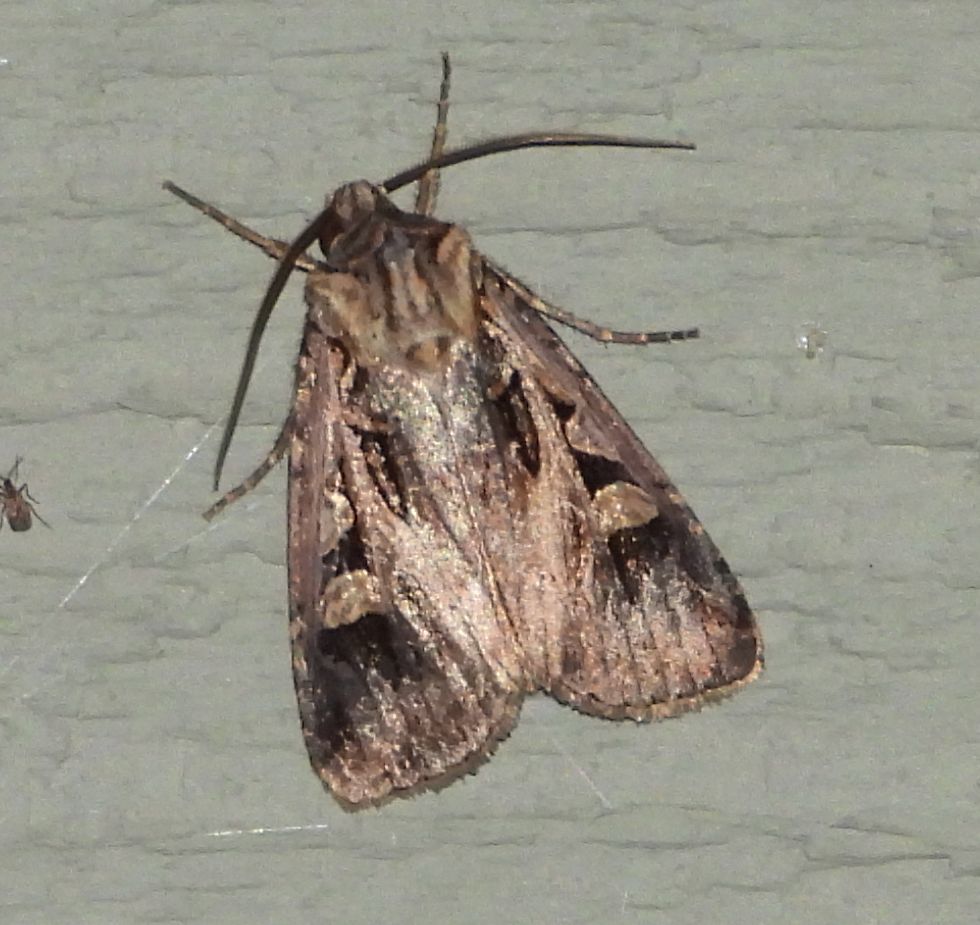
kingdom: Animalia
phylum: Arthropoda
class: Insecta
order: Lepidoptera
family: Noctuidae
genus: Feltia
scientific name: Feltia herilis
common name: Master's dart
